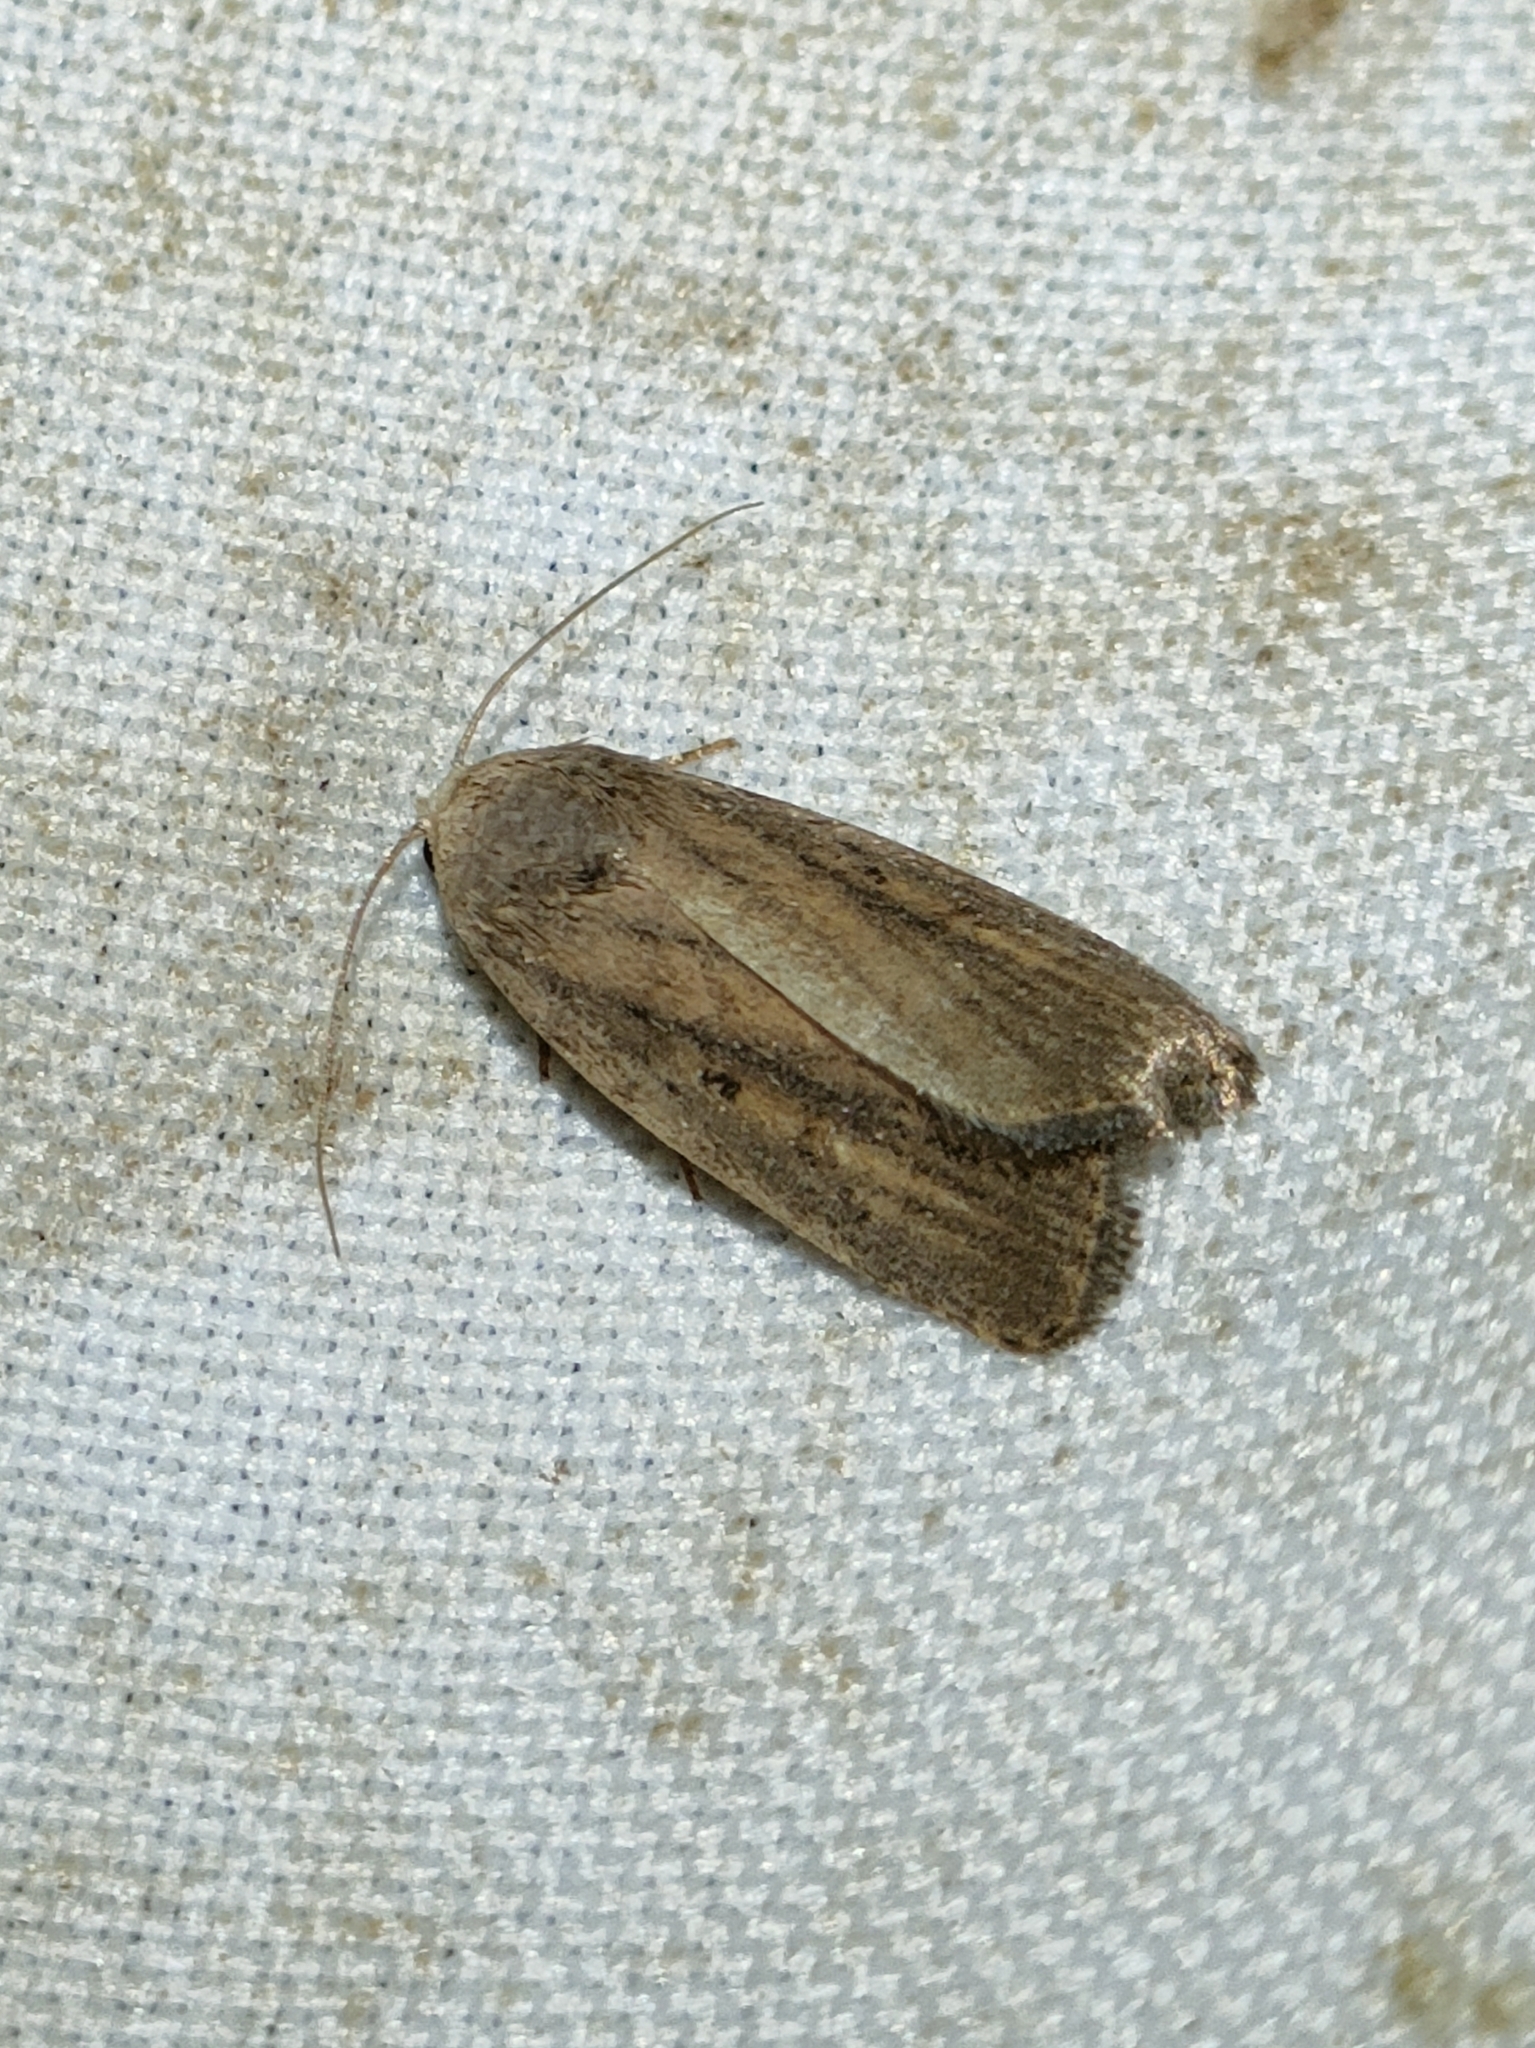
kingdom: Animalia
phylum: Arthropoda
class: Insecta
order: Lepidoptera
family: Noctuidae
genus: Athetis
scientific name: Athetis hospes
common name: Porter's rustic
